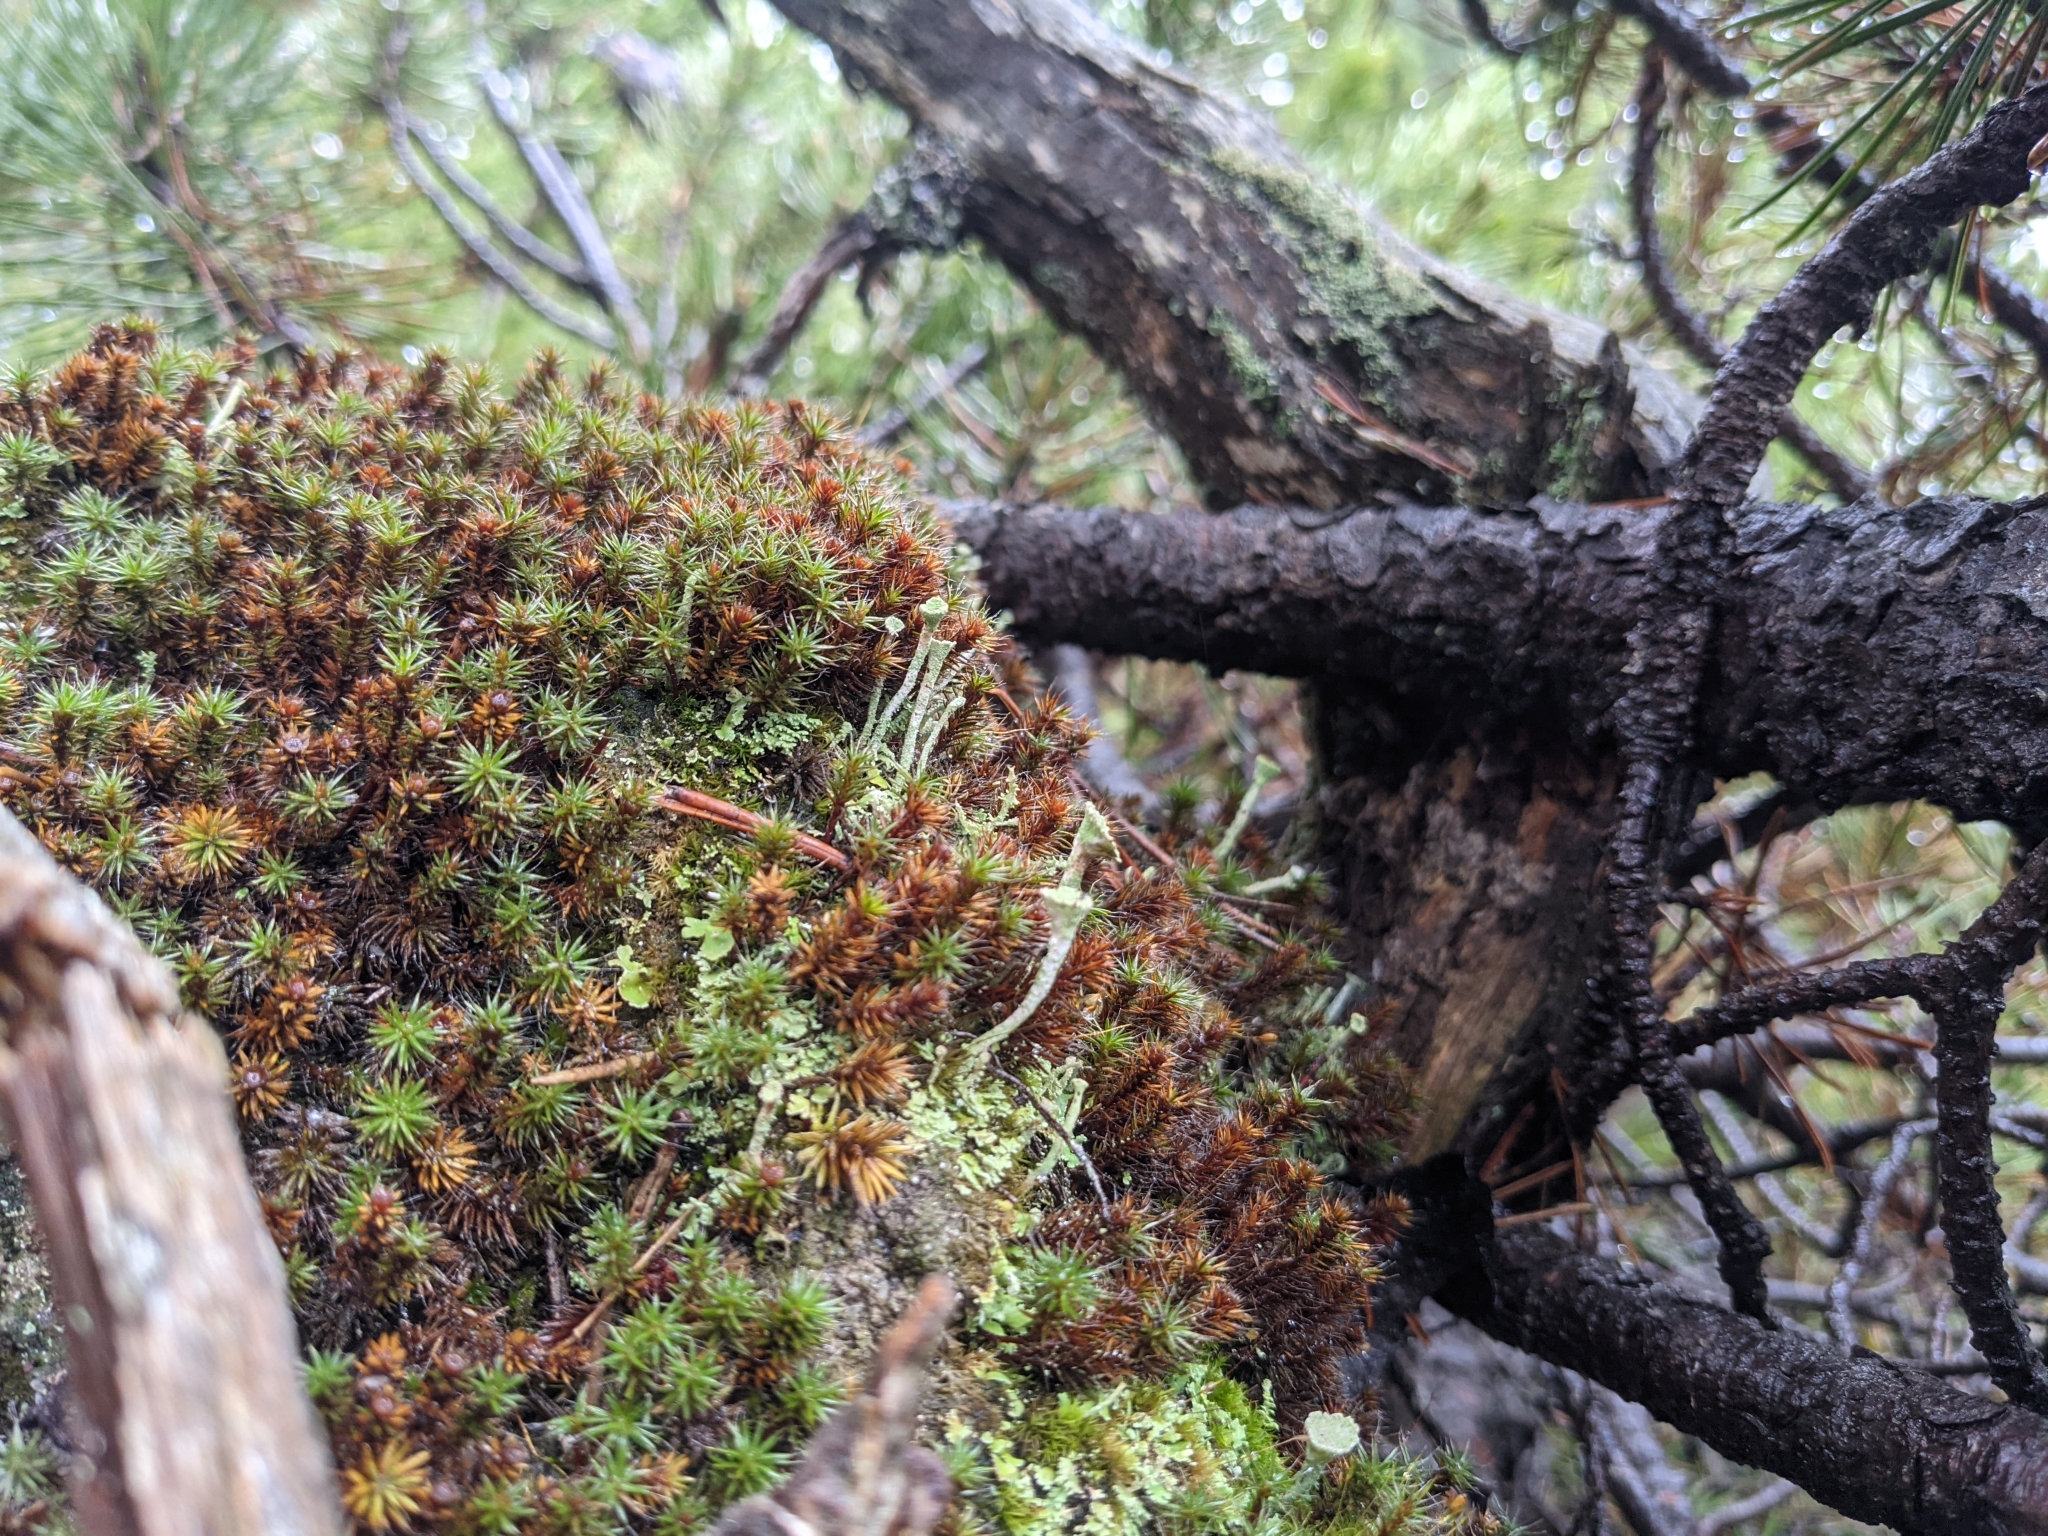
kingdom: Fungi
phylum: Ascomycota
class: Lecanoromycetes
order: Lecanorales
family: Cladoniaceae
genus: Cladonia
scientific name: Cladonia fimbriata
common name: Powdered trumpet lichen
